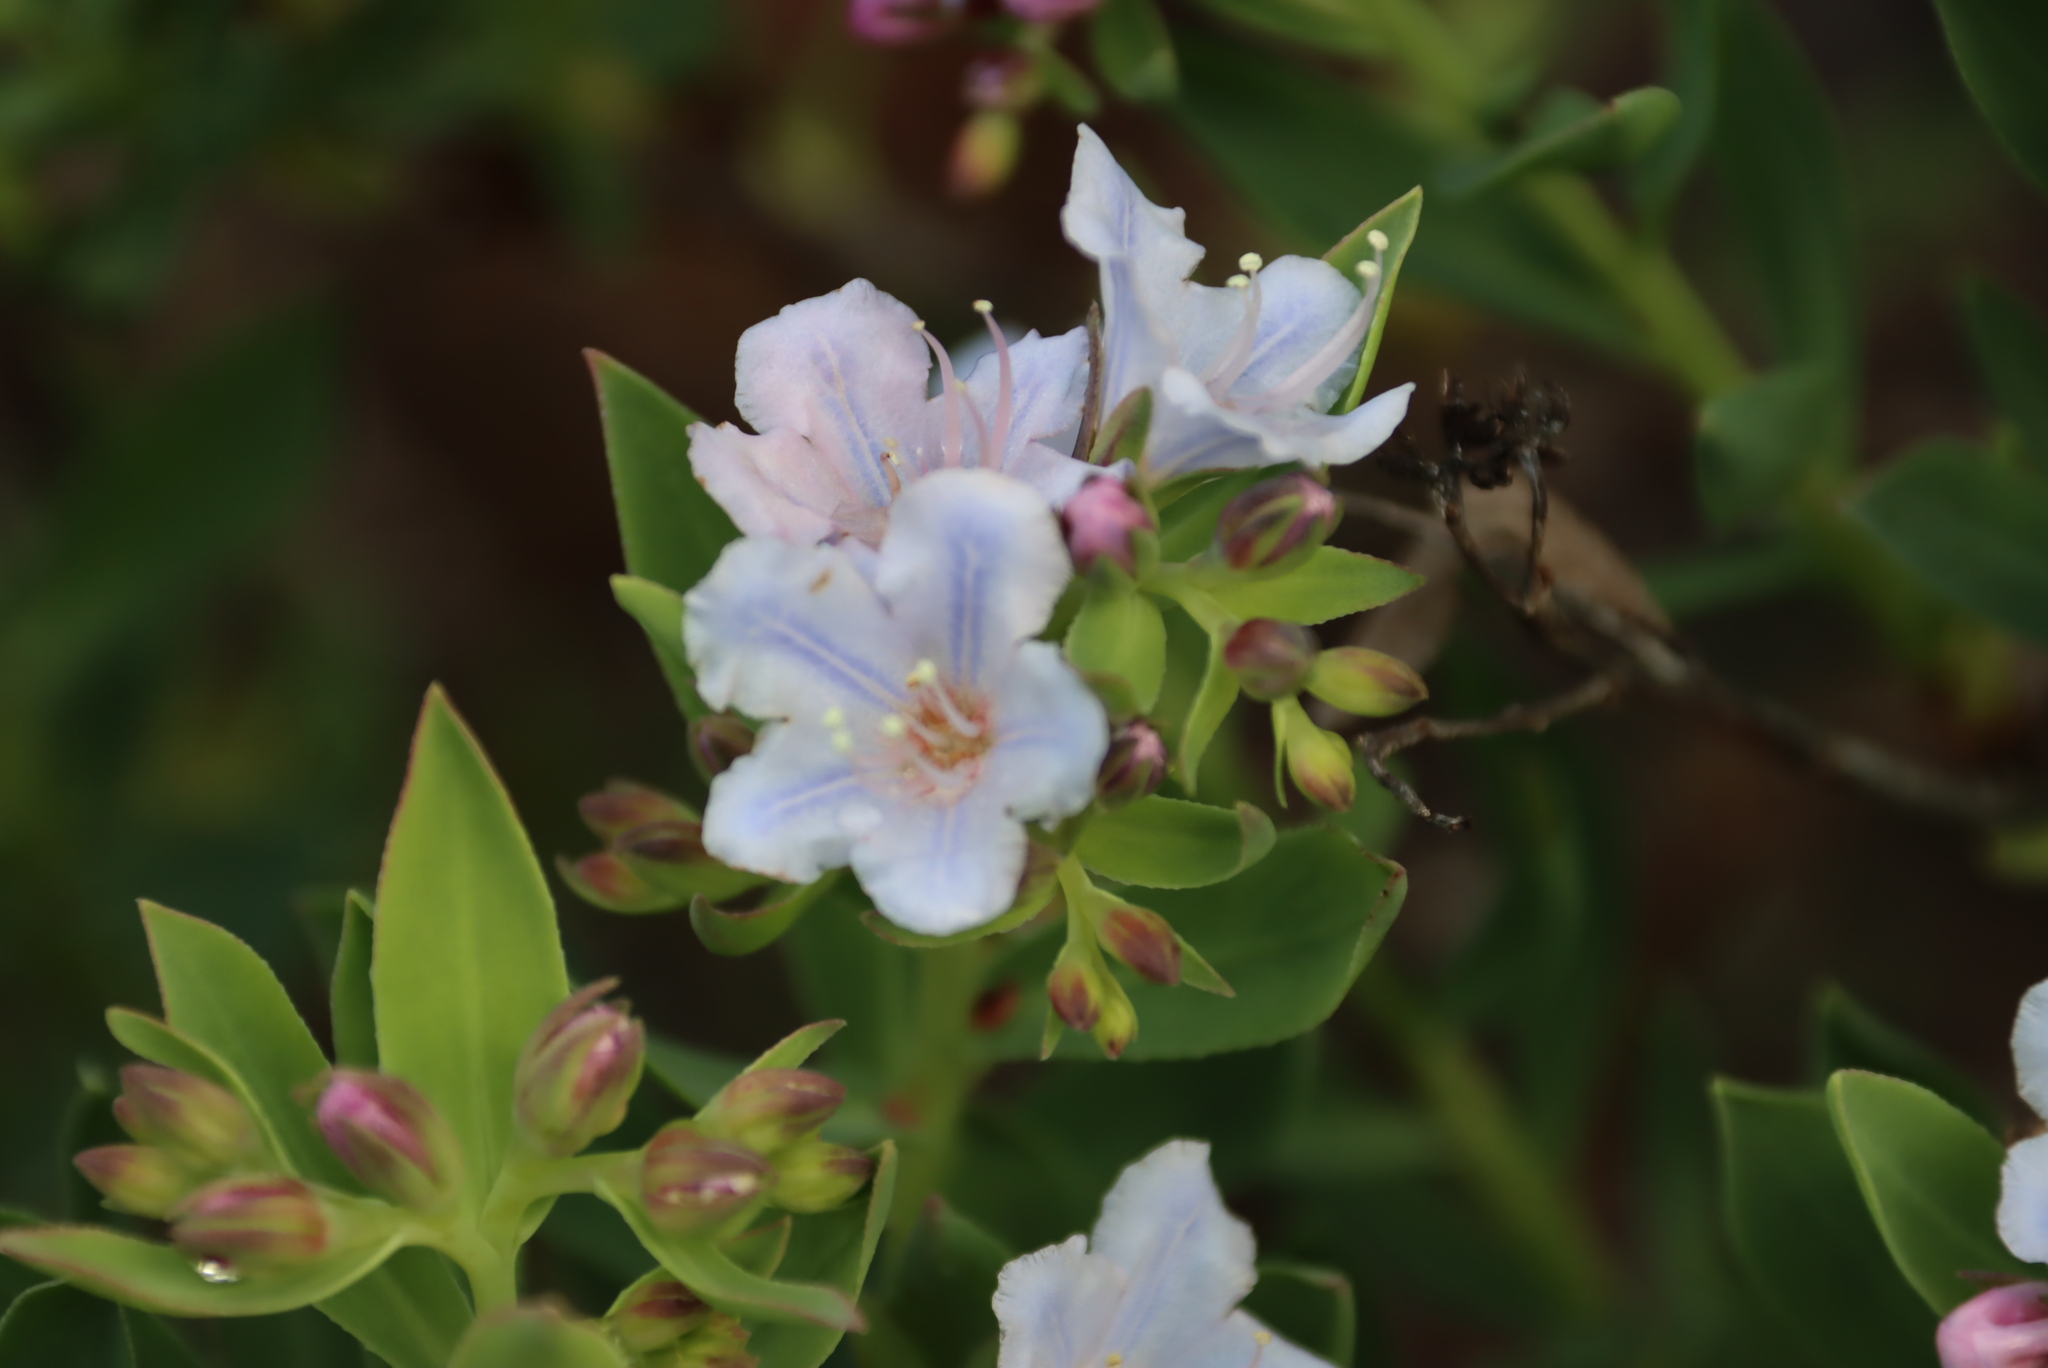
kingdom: Plantae
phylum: Tracheophyta
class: Magnoliopsida
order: Boraginales
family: Boraginaceae
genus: Lobostemon
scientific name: Lobostemon glaucophyllus
